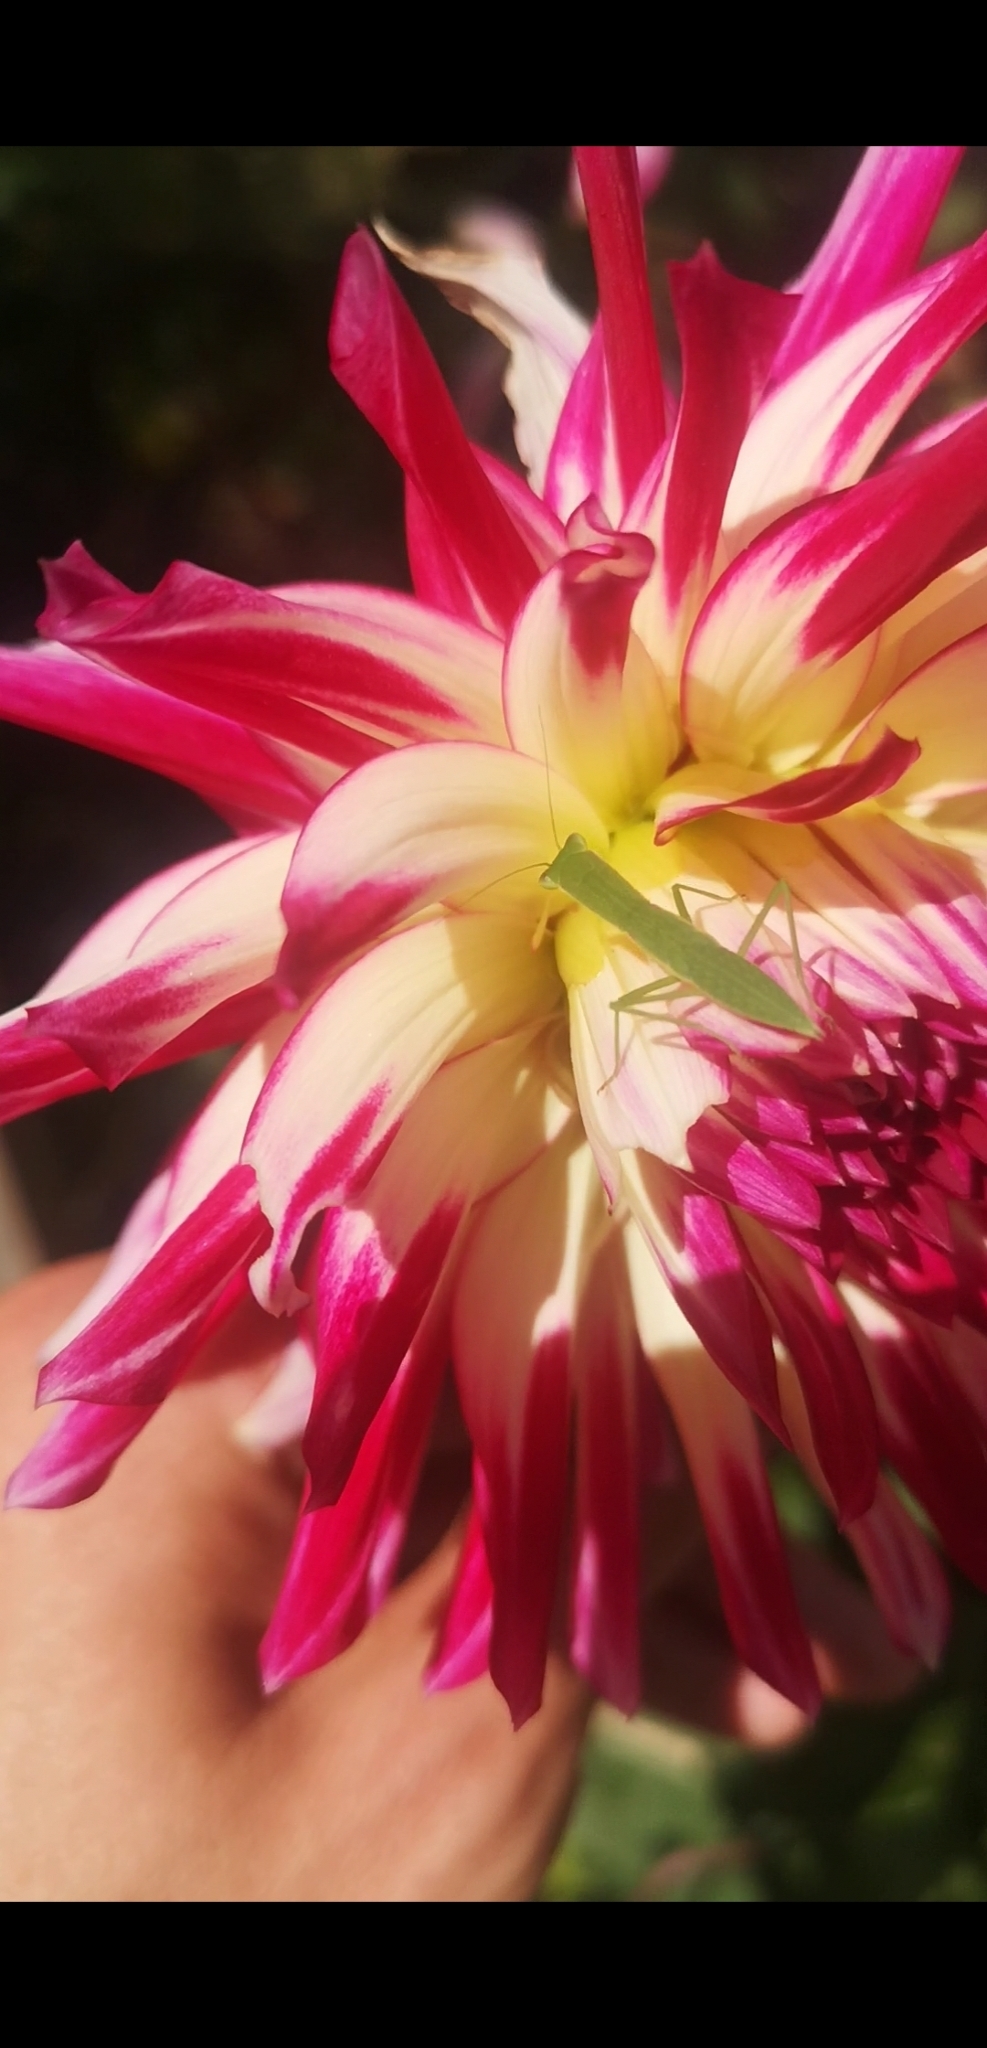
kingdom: Animalia
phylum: Arthropoda
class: Insecta
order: Mantodea
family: Mantidae
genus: Orthodera
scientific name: Orthodera novaezealandiae
